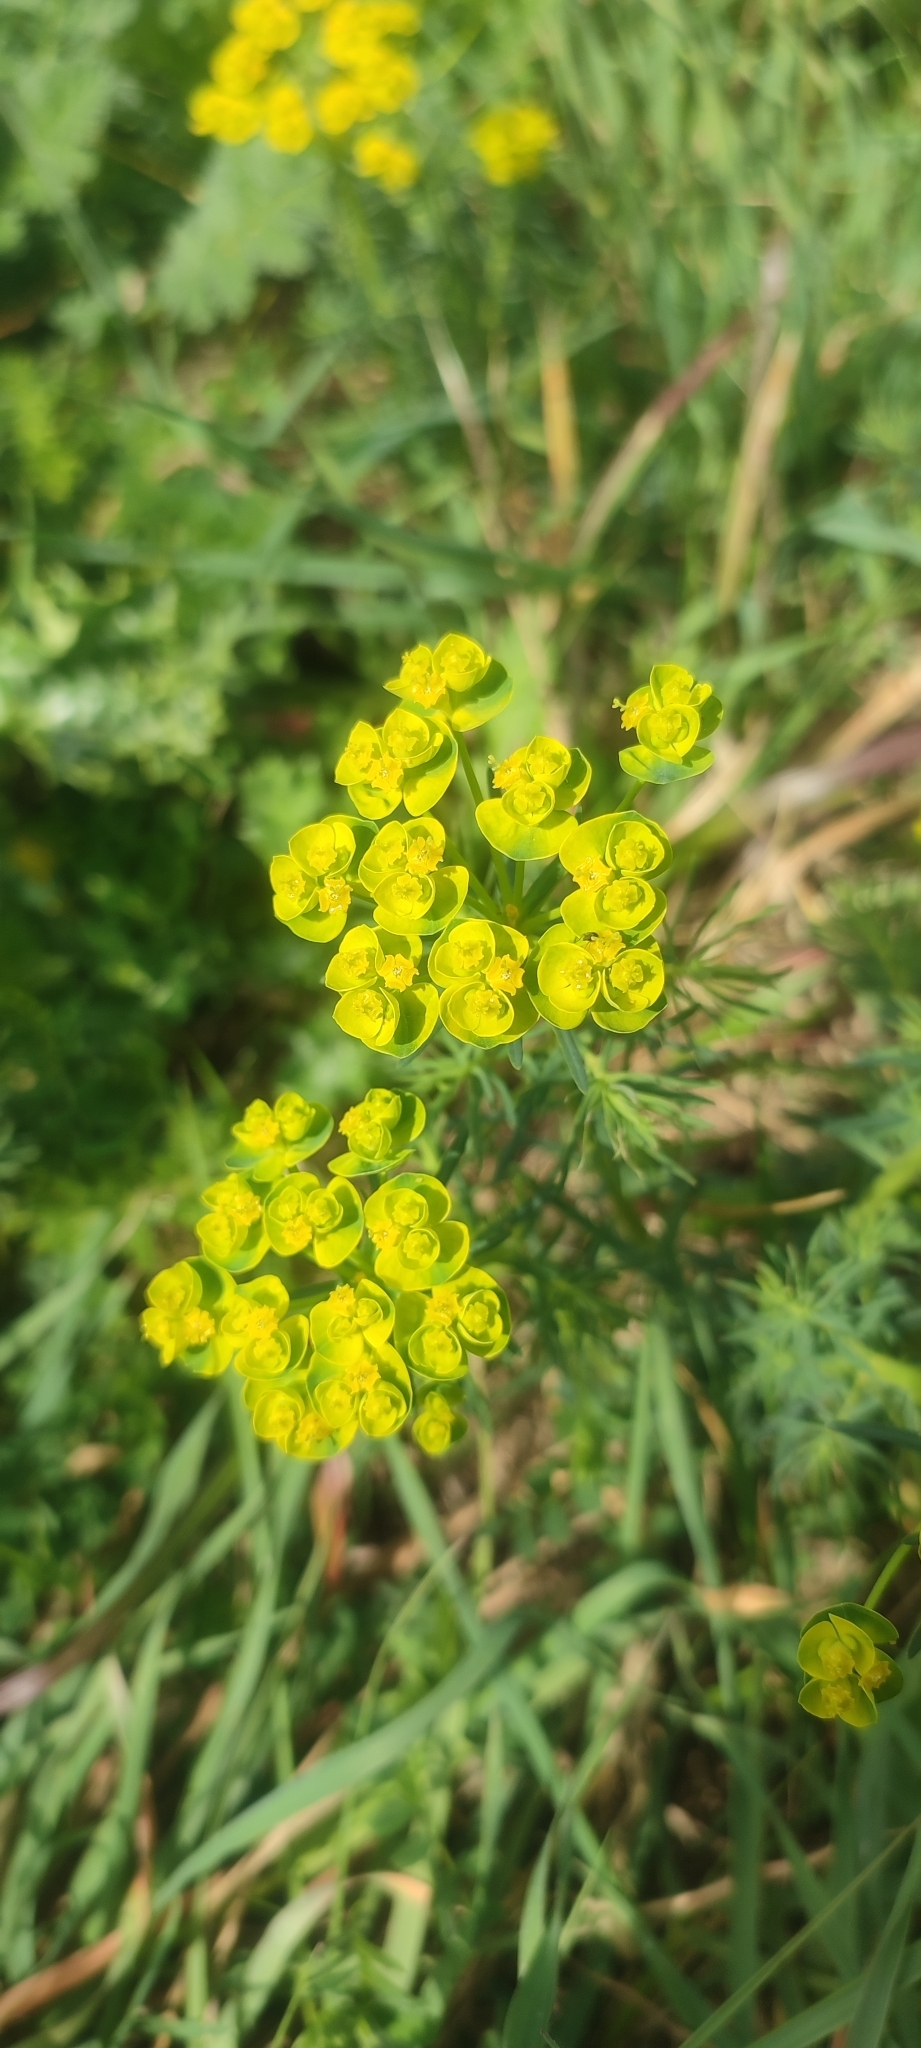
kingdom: Plantae
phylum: Tracheophyta
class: Magnoliopsida
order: Malpighiales
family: Euphorbiaceae
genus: Euphorbia
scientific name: Euphorbia cyparissias
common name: Cypress spurge
